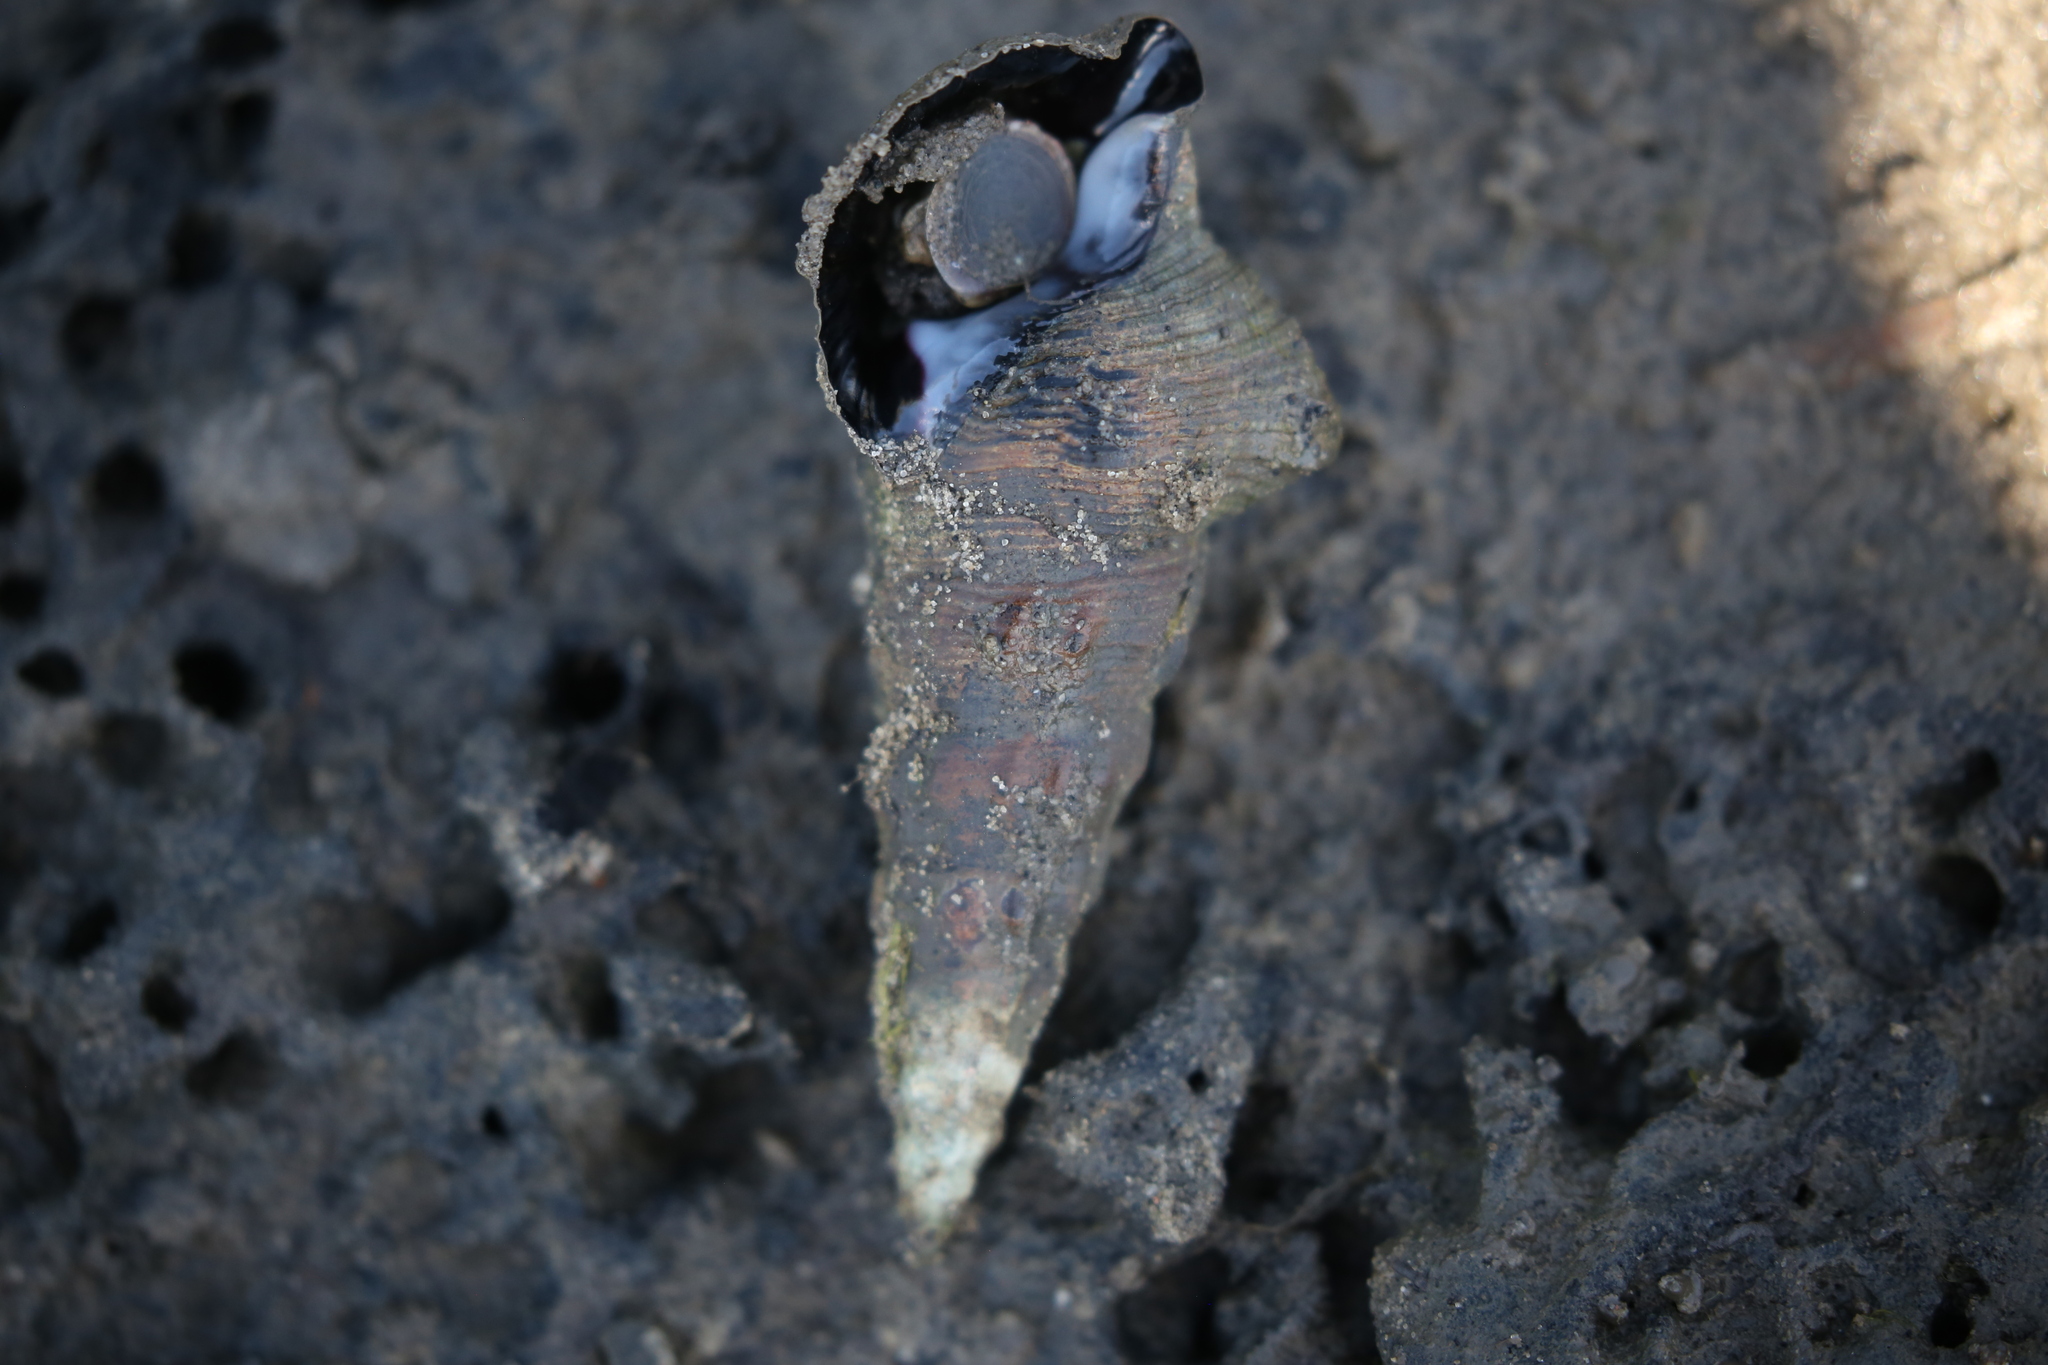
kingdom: Animalia
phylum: Mollusca
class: Gastropoda
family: Batillariidae
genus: Pyrazus
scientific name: Pyrazus ebeninus
